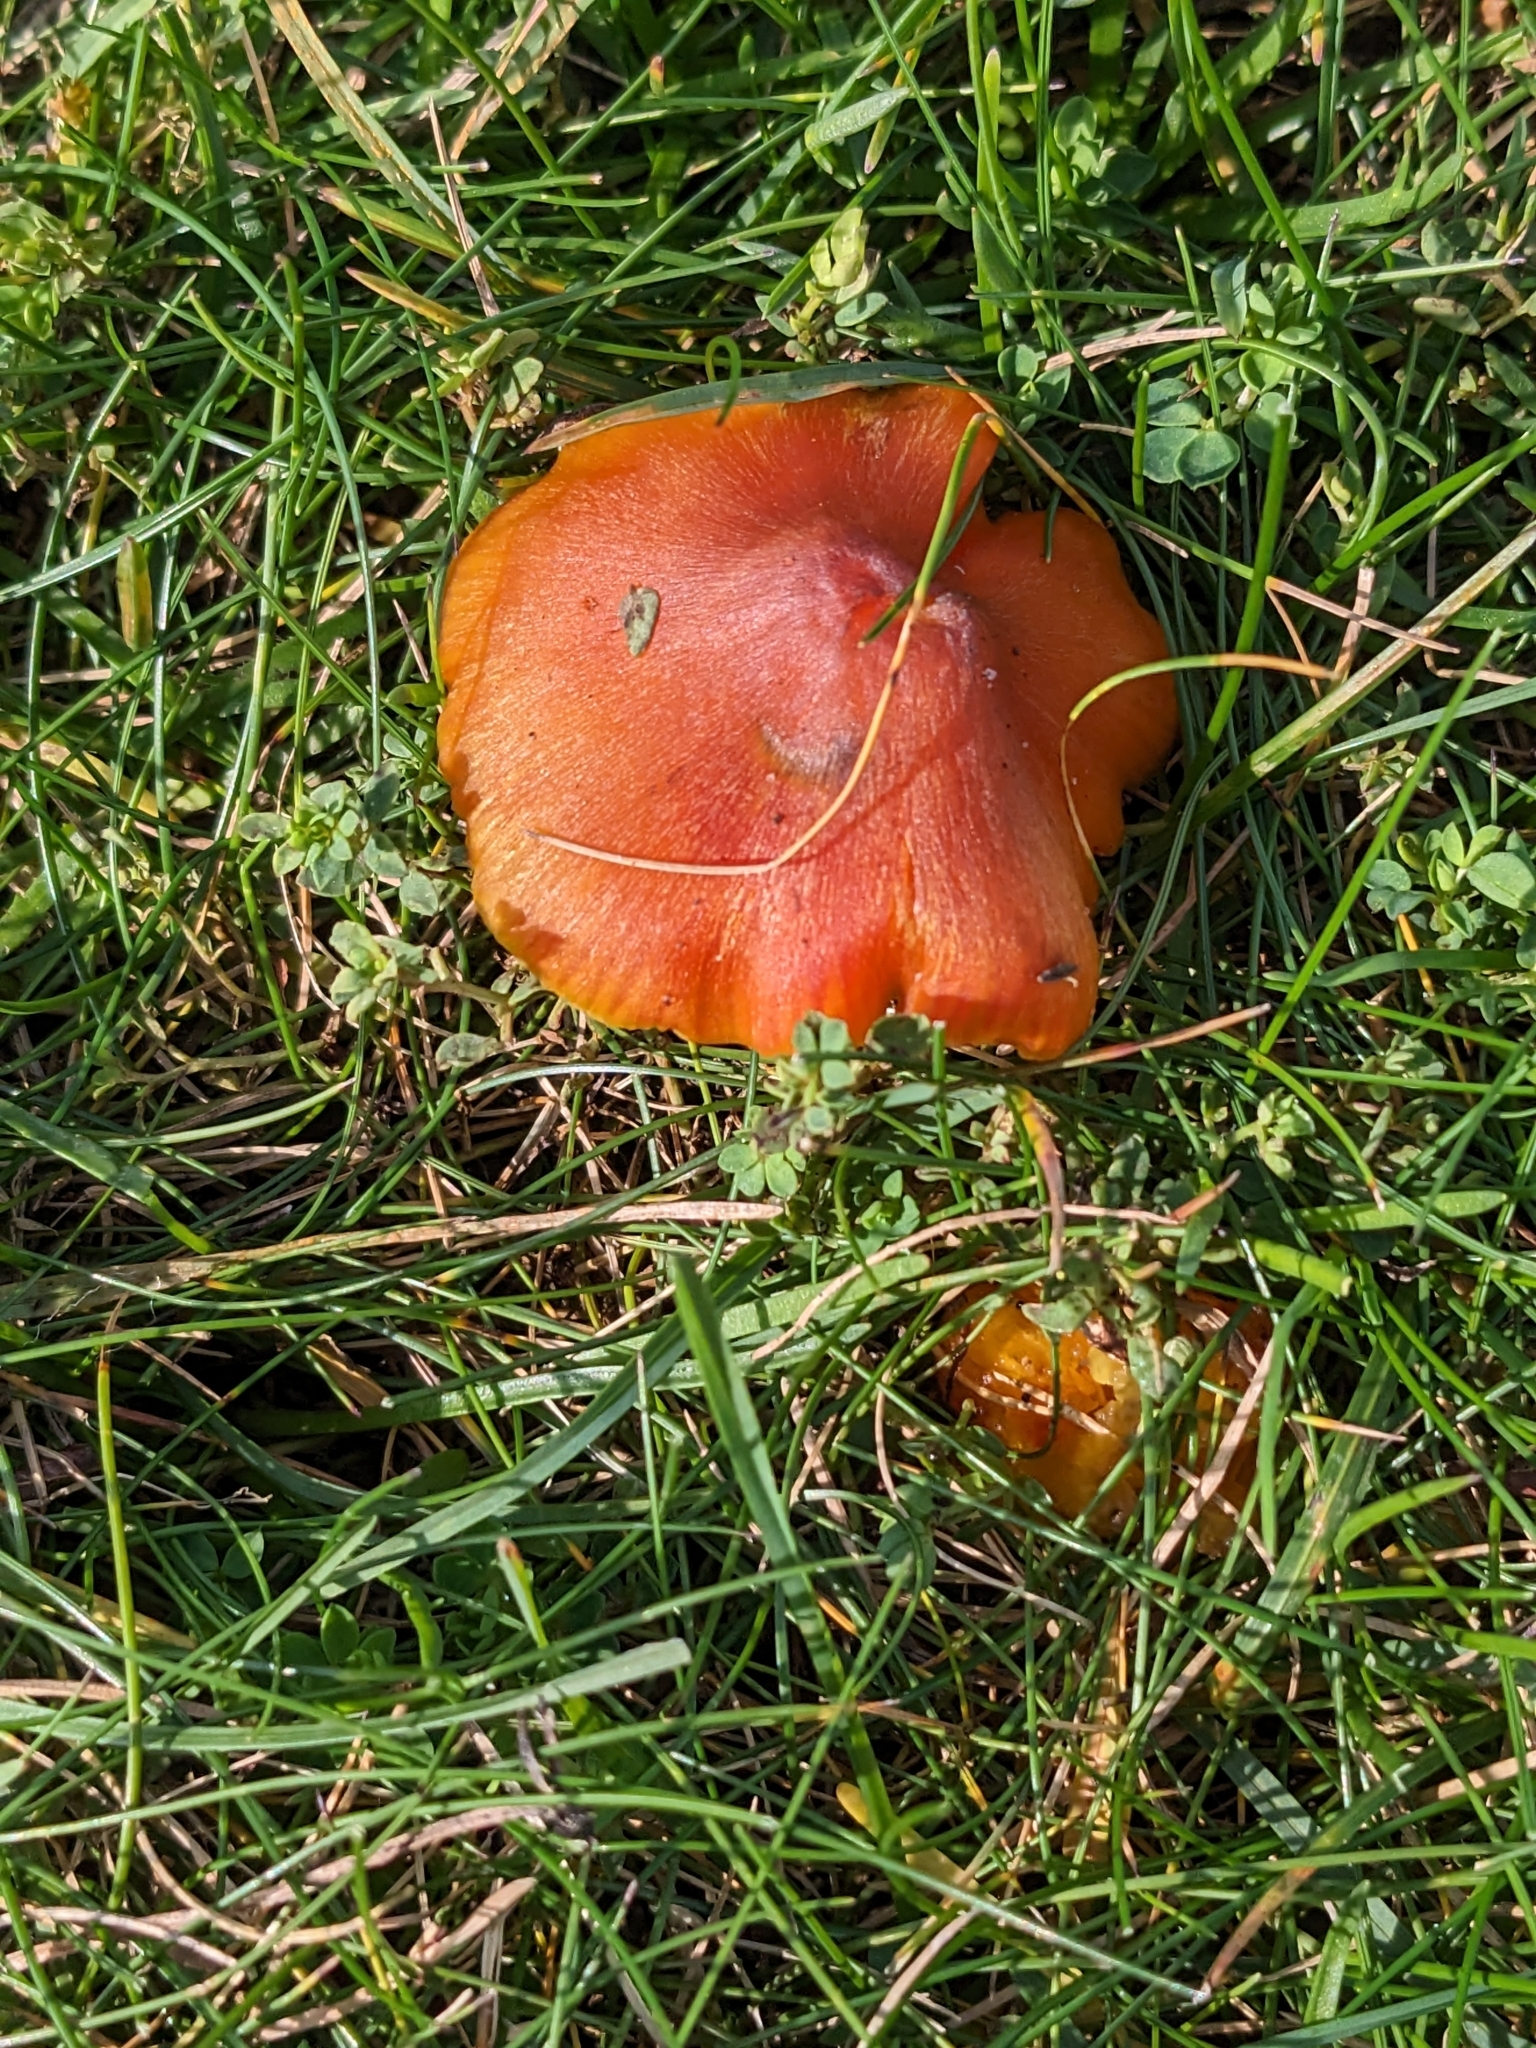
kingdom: Fungi
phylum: Basidiomycota
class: Agaricomycetes
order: Agaricales
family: Hygrophoraceae
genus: Hygrocybe
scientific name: Hygrocybe conica
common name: Blackening wax-cap
